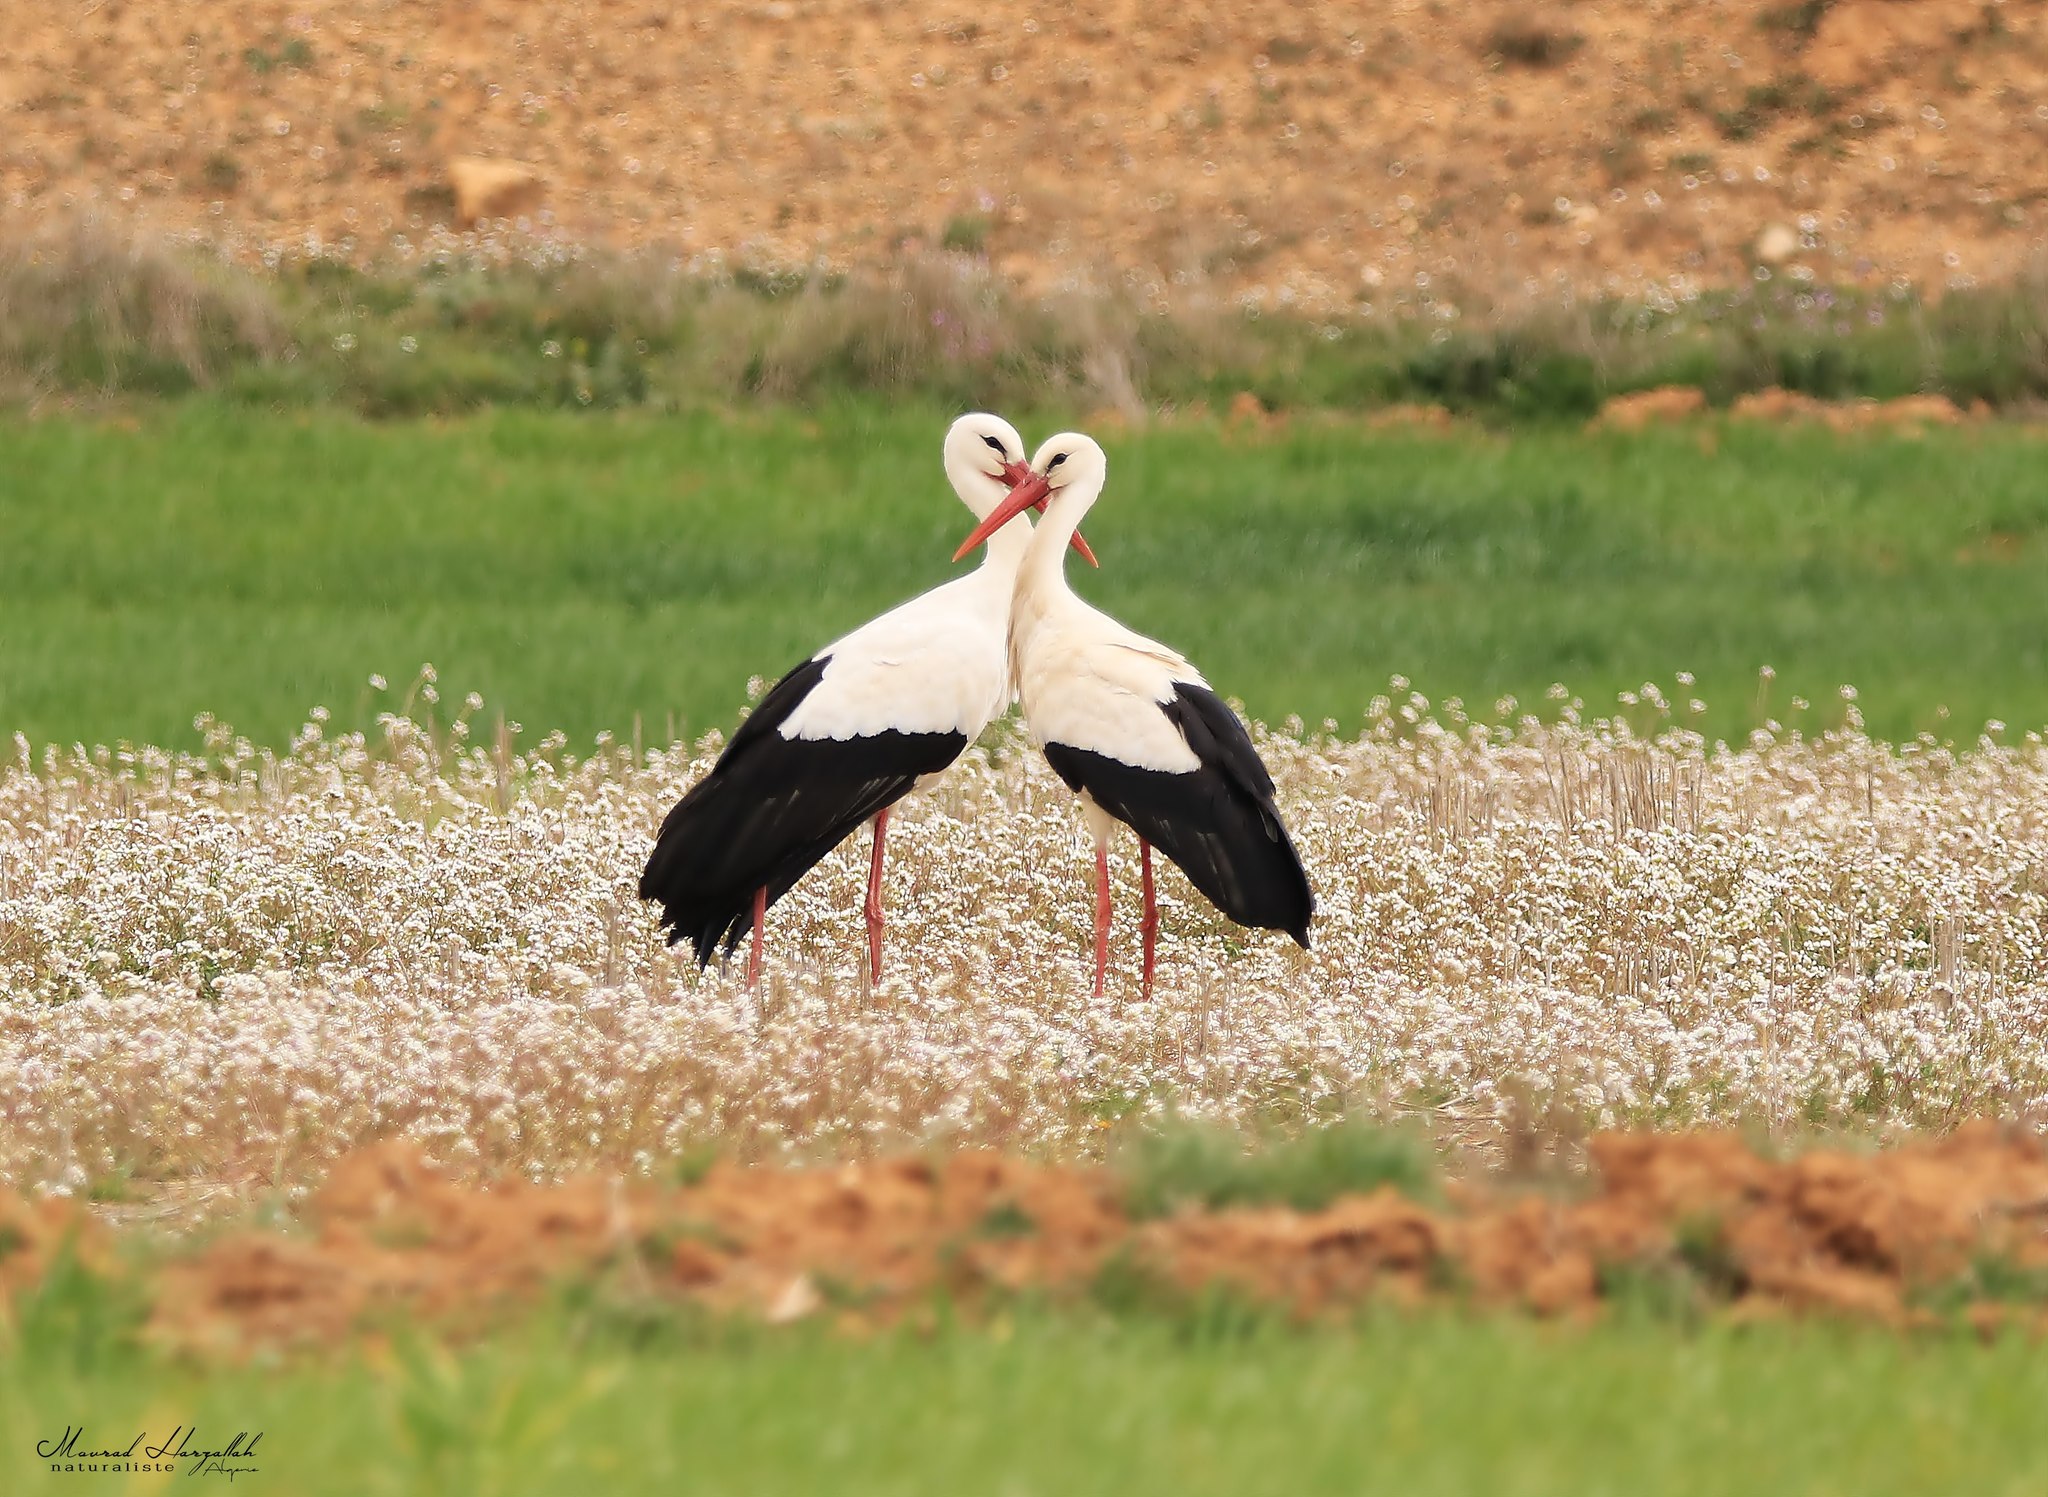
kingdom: Animalia
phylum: Chordata
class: Aves
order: Ciconiiformes
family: Ciconiidae
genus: Ciconia
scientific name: Ciconia ciconia
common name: White stork
